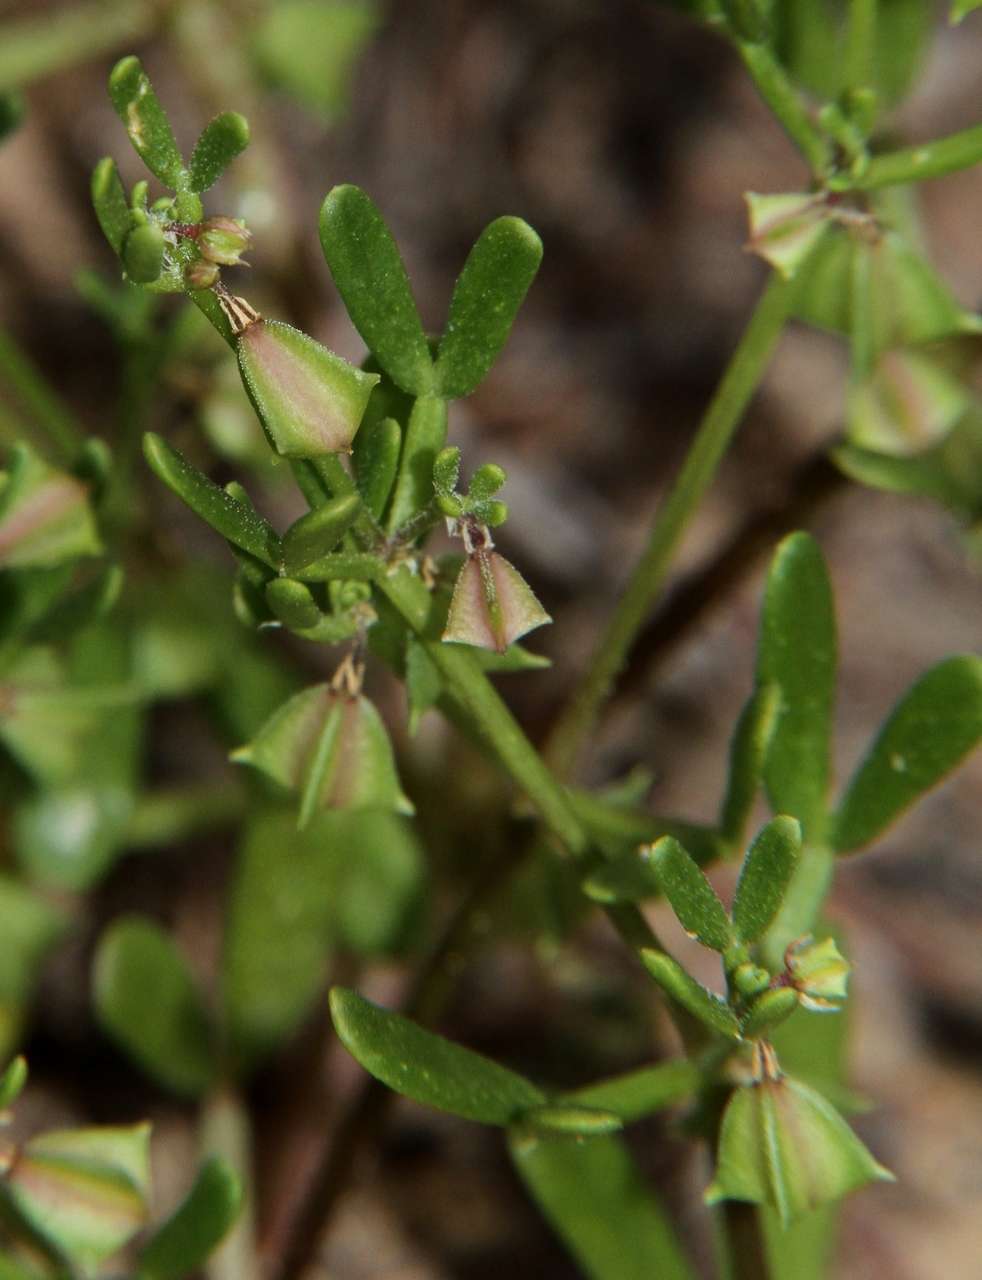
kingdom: Plantae
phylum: Tracheophyta
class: Magnoliopsida
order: Zygophyllales
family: Zygophyllaceae
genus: Roepera
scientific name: Roepera ammophila
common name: Sand twinleaf
